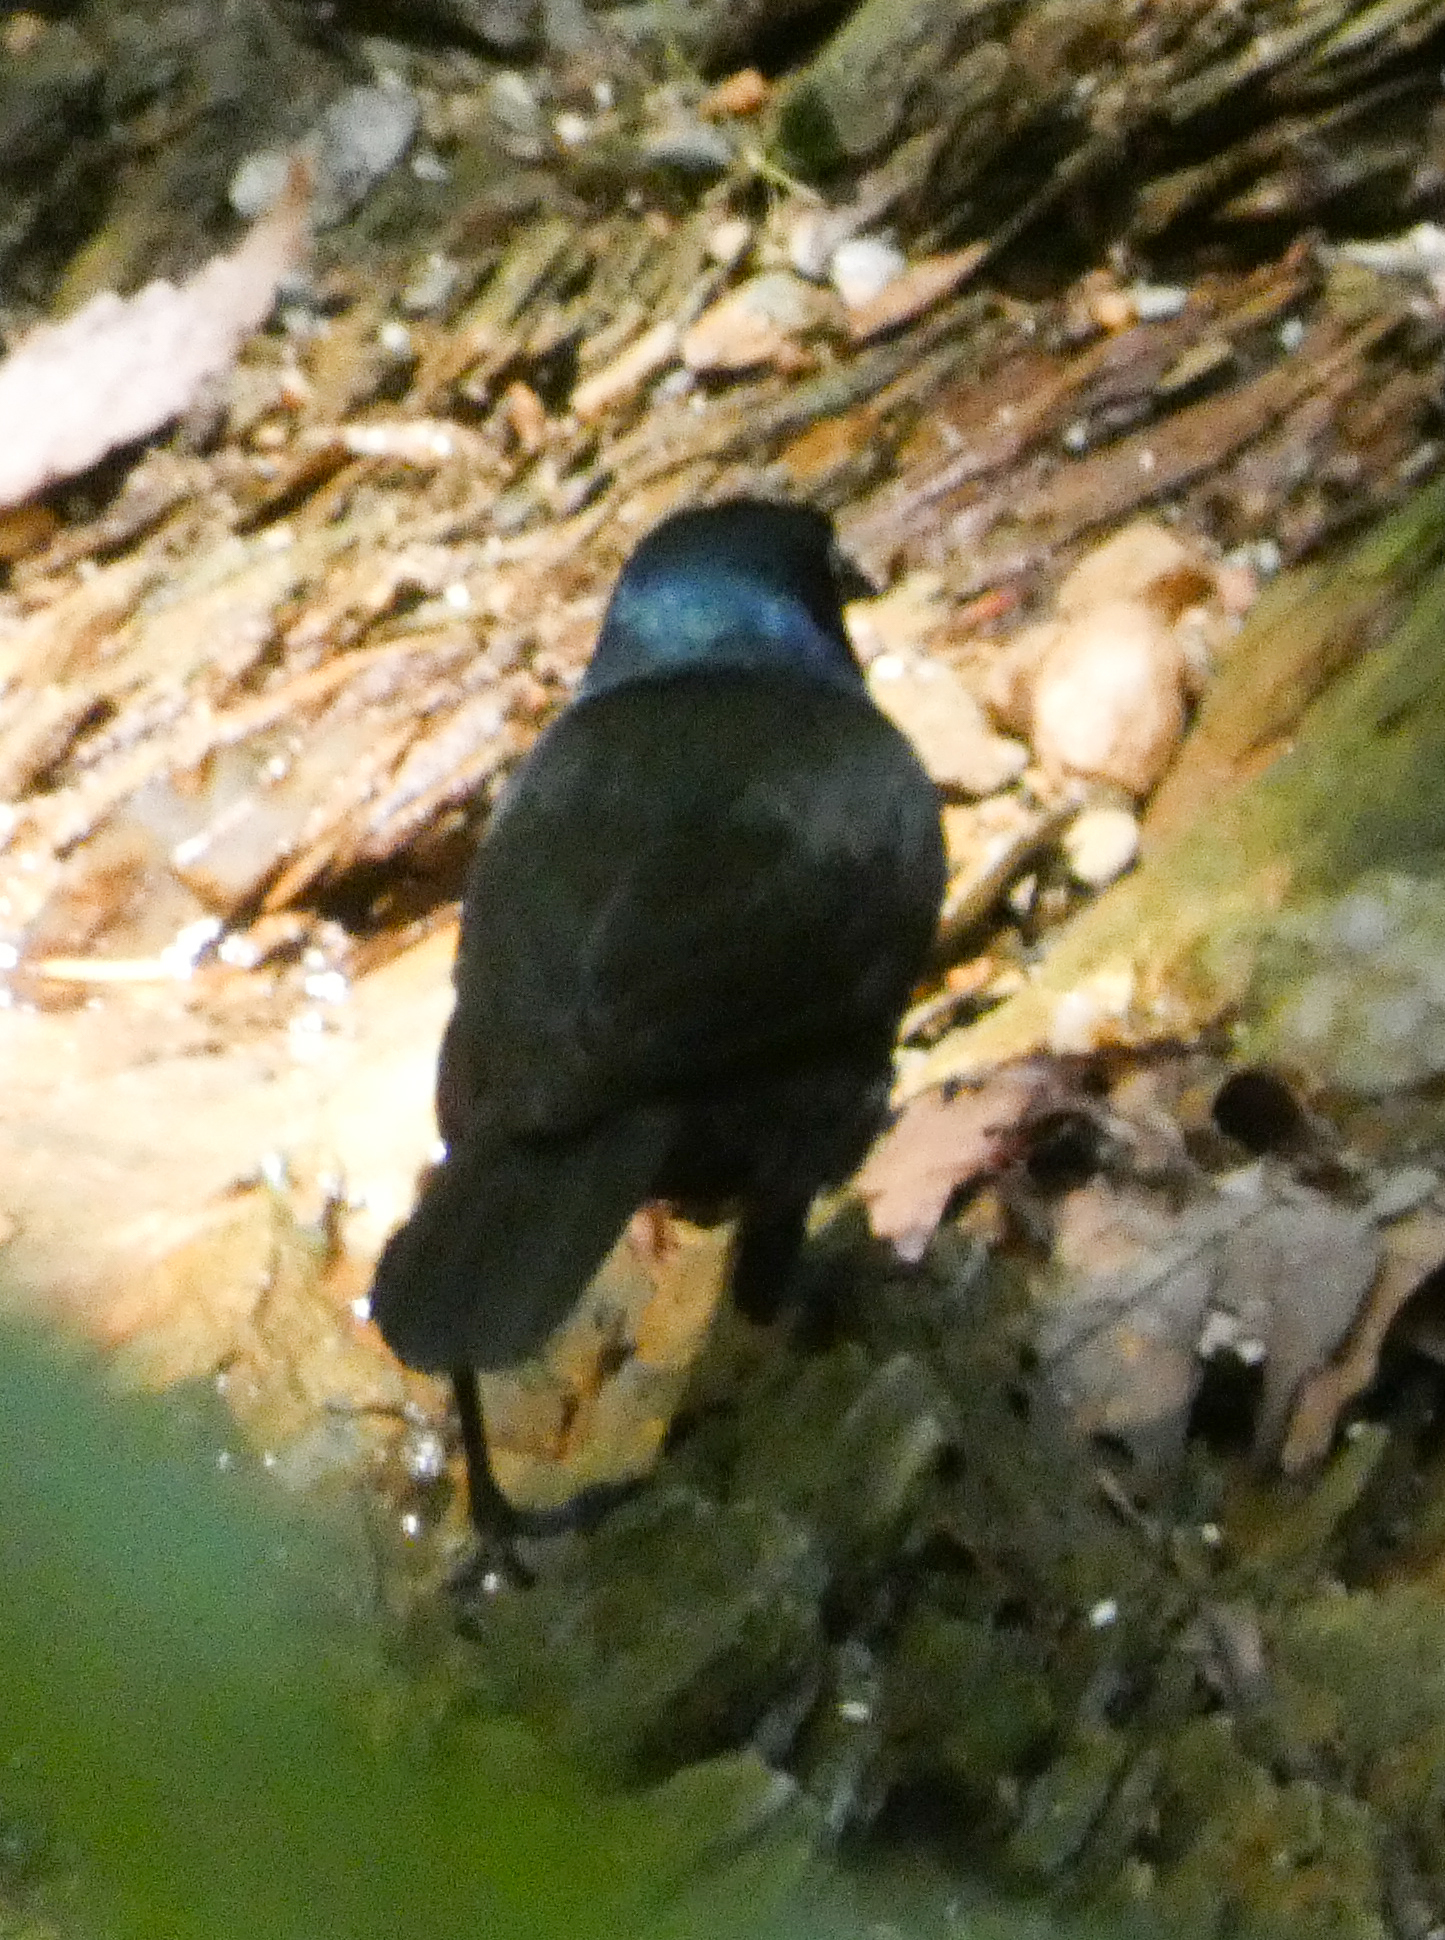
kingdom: Animalia
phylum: Chordata
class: Aves
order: Passeriformes
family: Icteridae
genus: Quiscalus
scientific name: Quiscalus quiscula
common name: Common grackle
